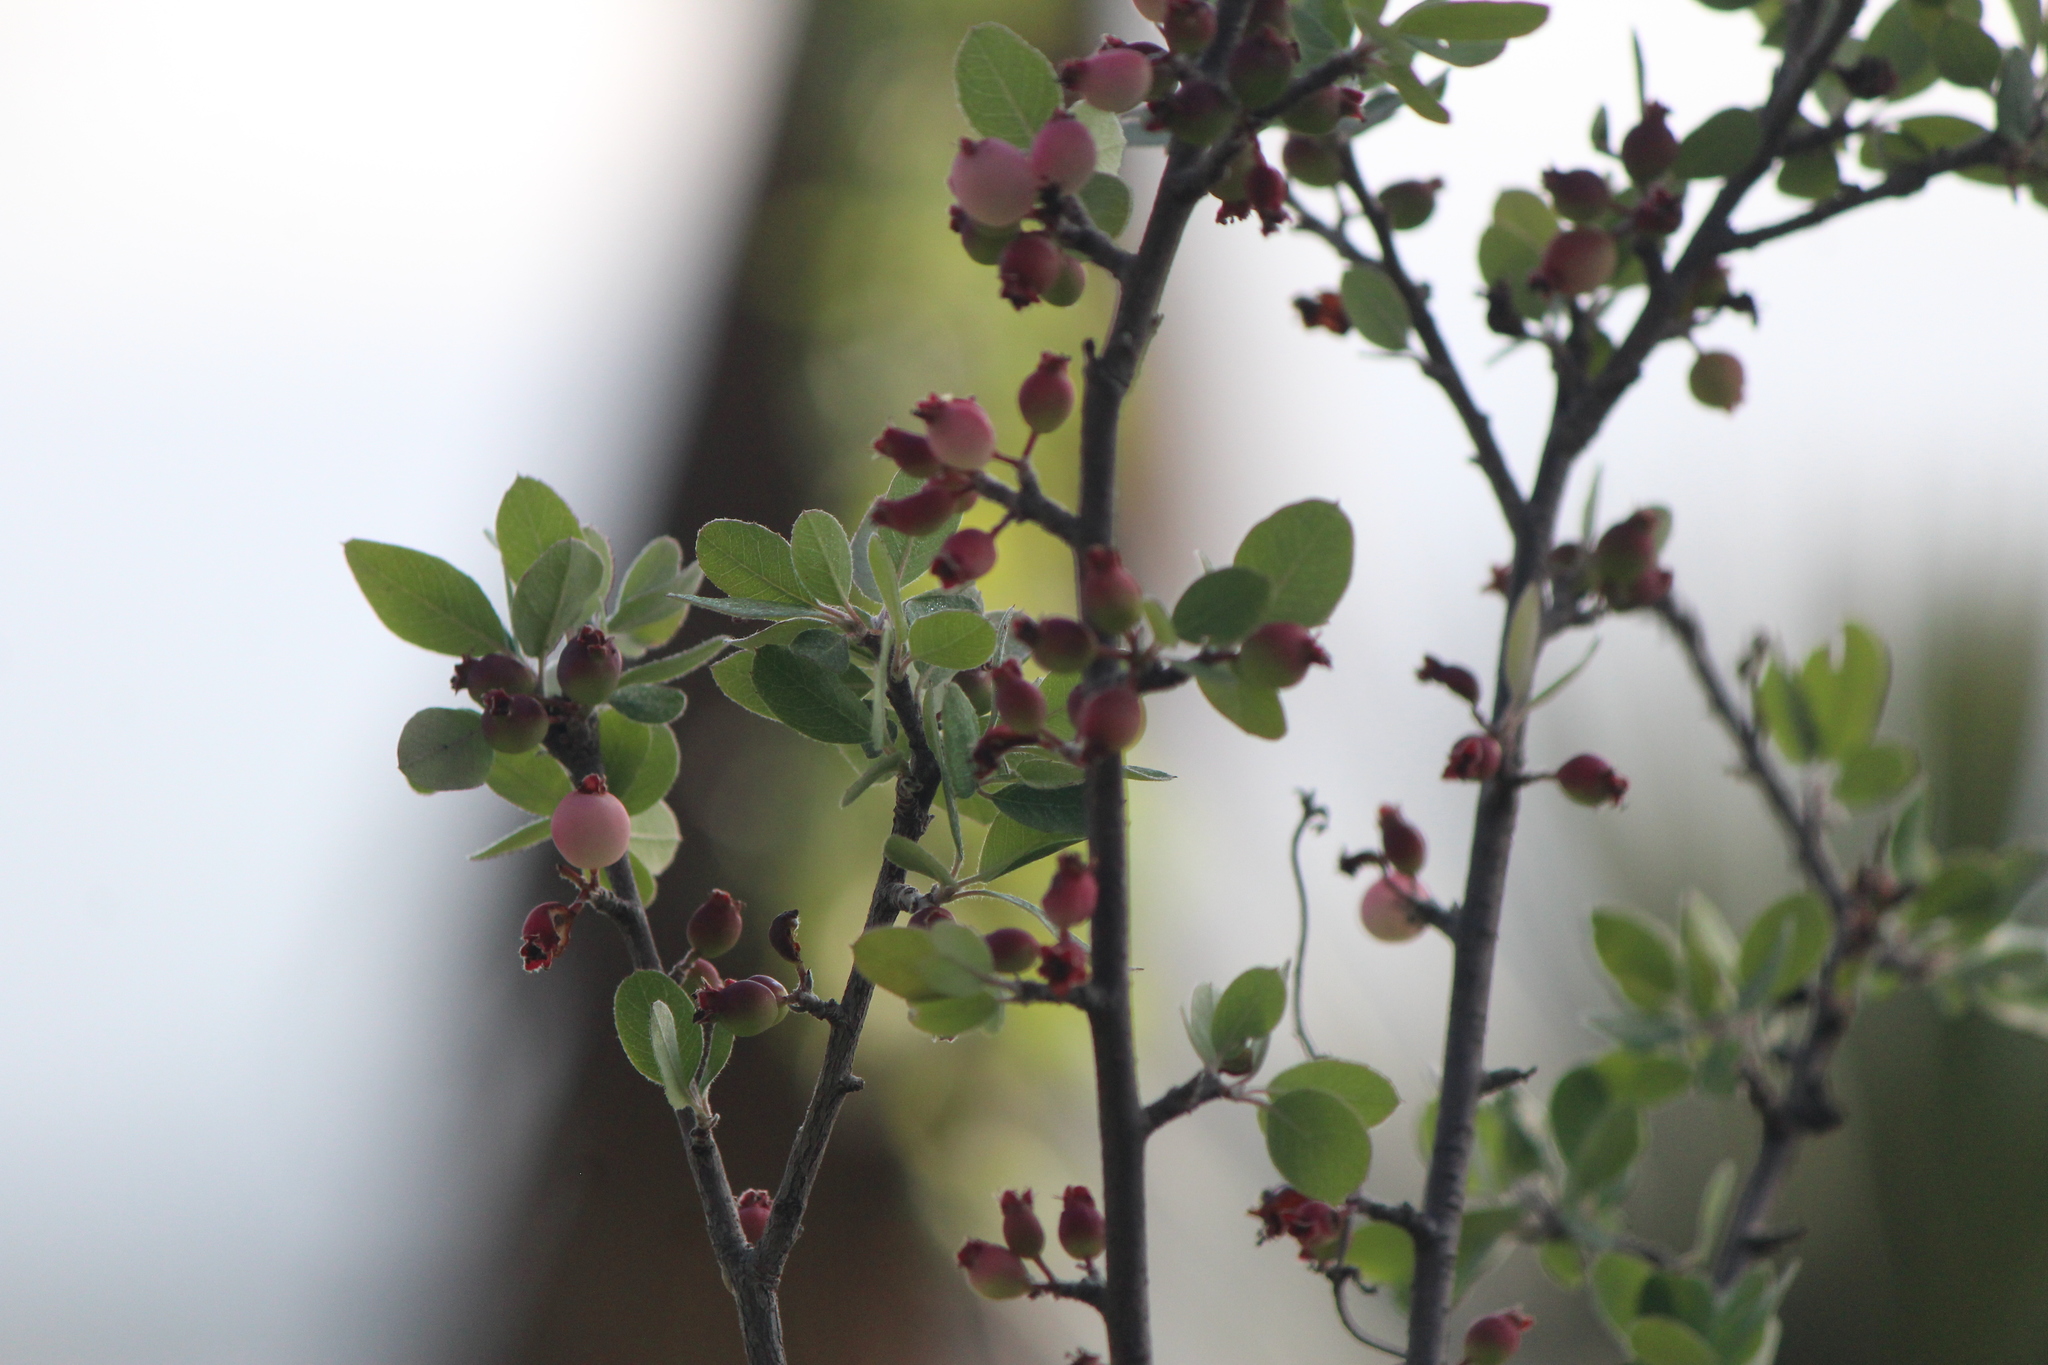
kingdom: Plantae
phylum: Tracheophyta
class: Magnoliopsida
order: Rosales
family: Rosaceae
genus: Malacomeles
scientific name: Malacomeles denticulata
